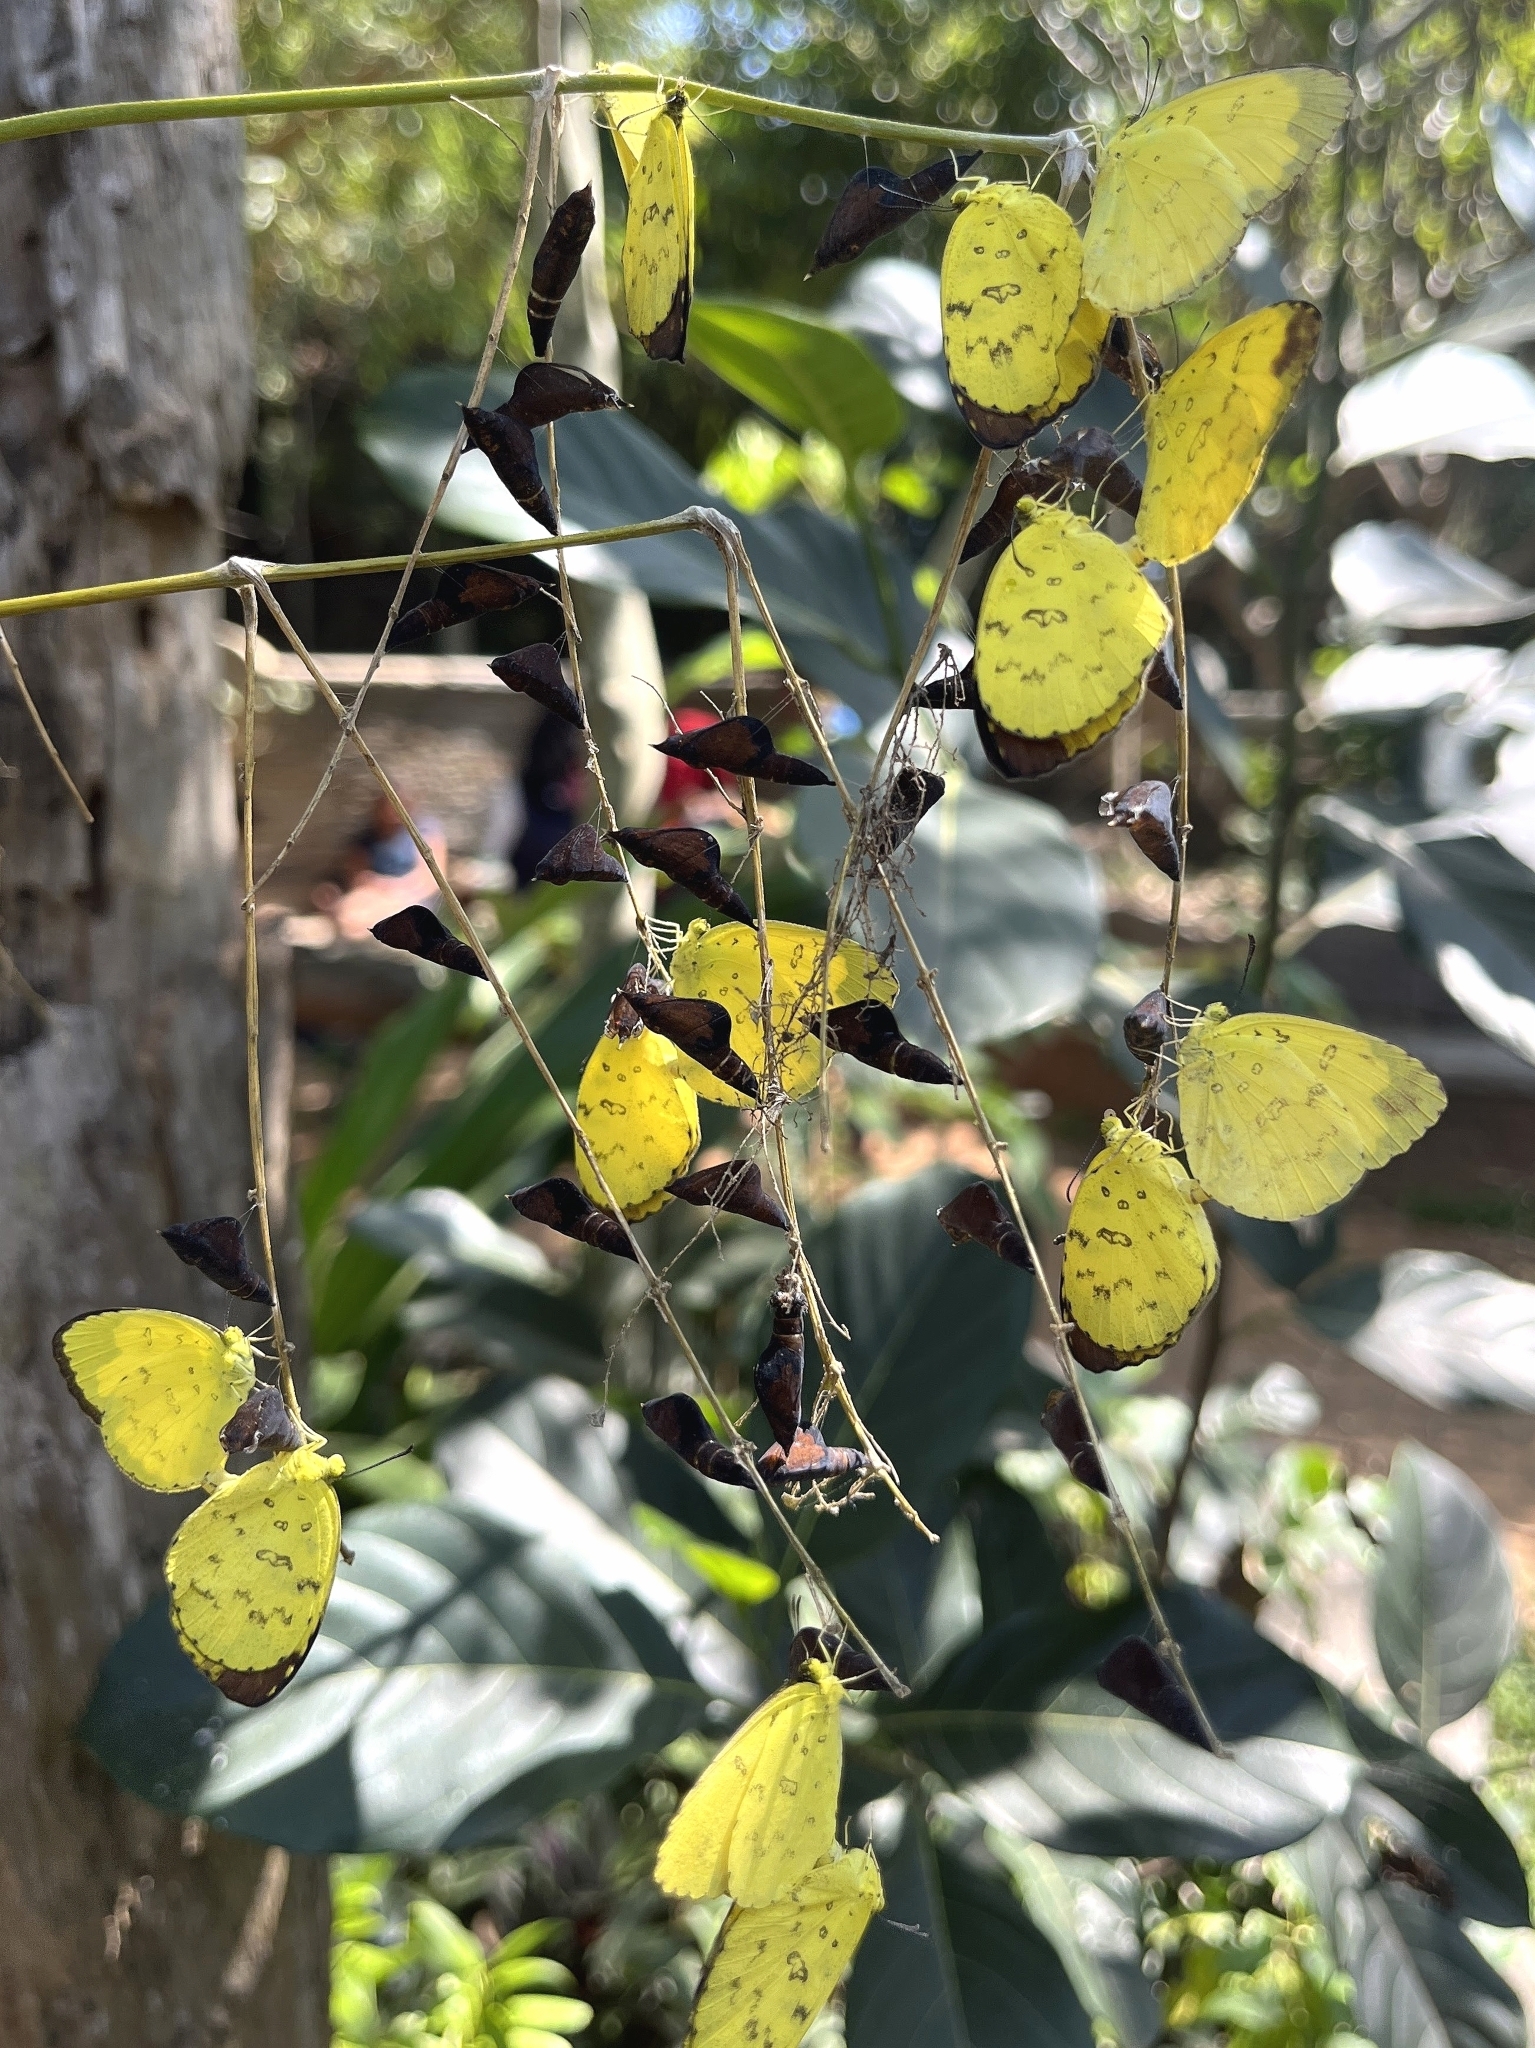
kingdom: Animalia
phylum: Arthropoda
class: Insecta
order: Lepidoptera
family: Pieridae
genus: Eurema
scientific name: Eurema blanda
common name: Three-spot grass yellow
